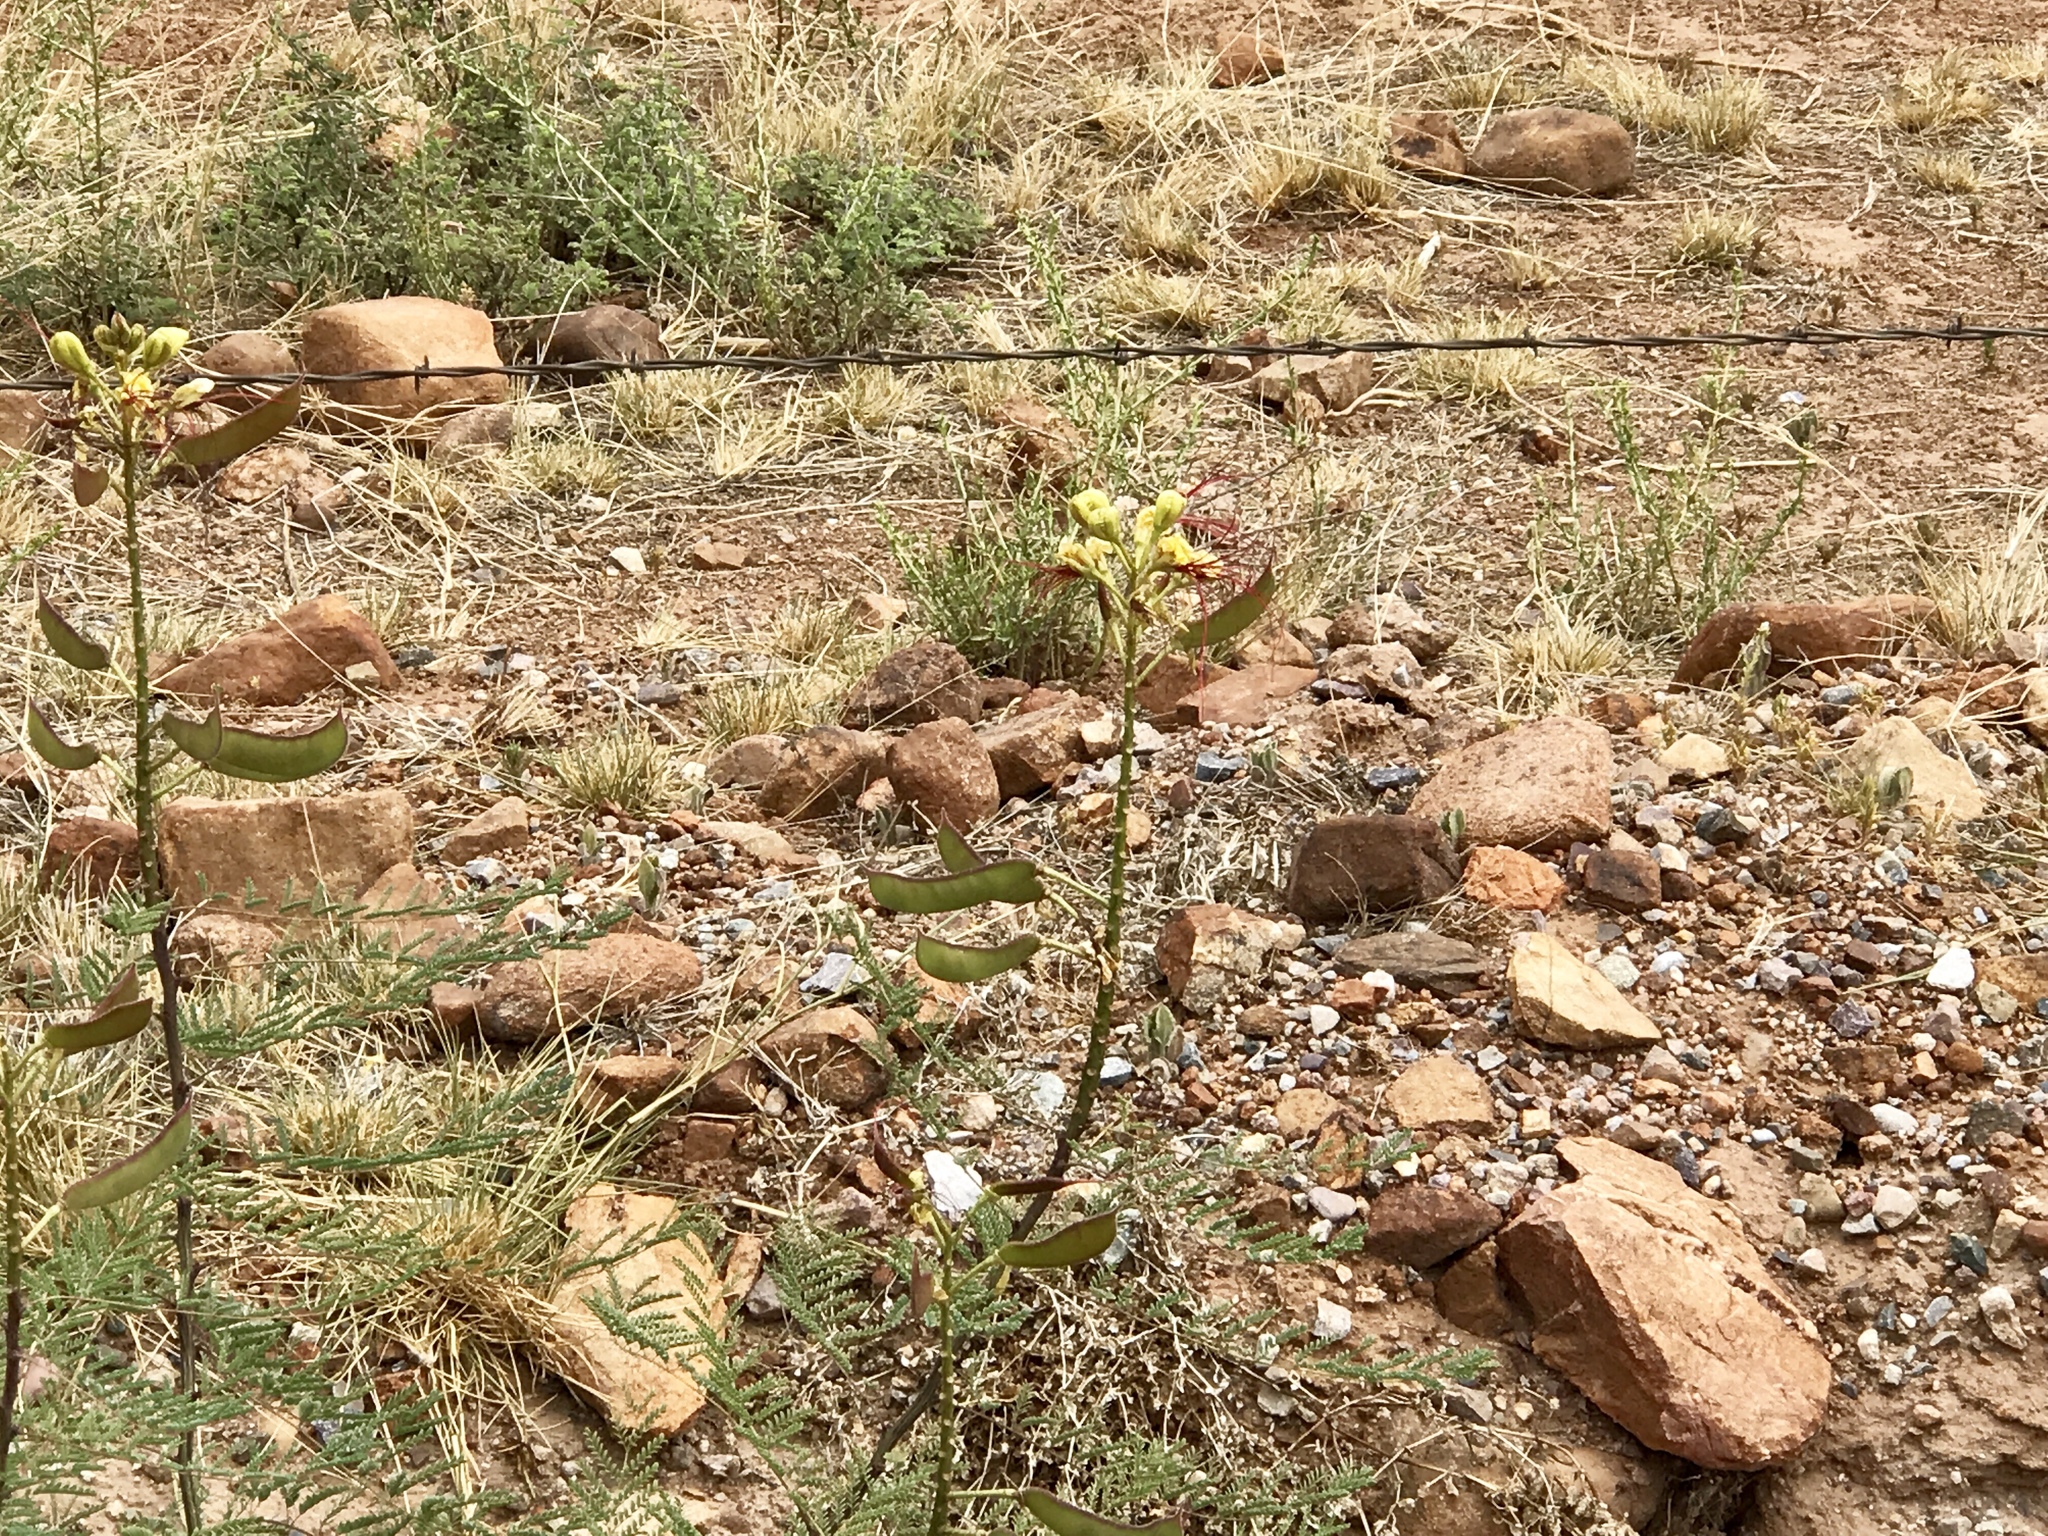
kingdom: Plantae
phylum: Tracheophyta
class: Magnoliopsida
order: Fabales
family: Fabaceae
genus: Erythrostemon
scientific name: Erythrostemon gilliesii
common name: Bird-of-paradise shrub
